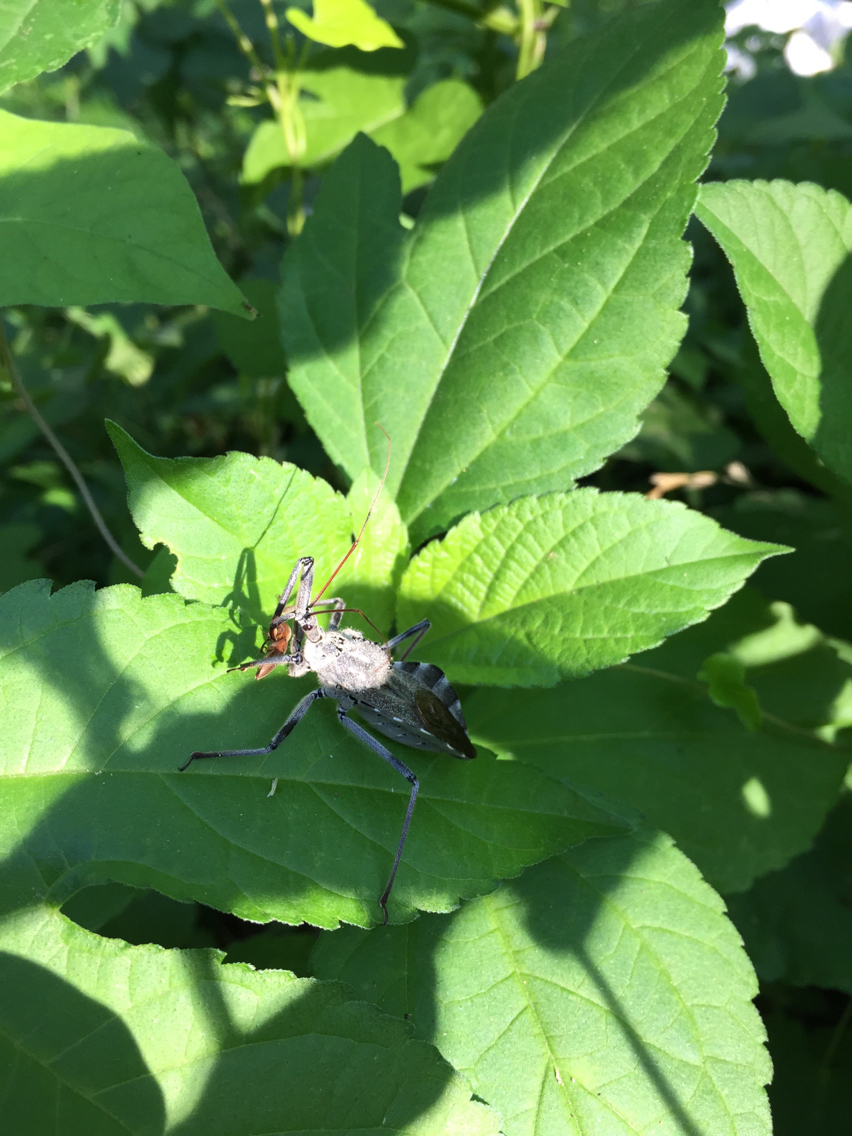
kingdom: Animalia
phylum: Arthropoda
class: Insecta
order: Hemiptera
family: Reduviidae
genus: Arilus
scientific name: Arilus cristatus
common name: North american wheel bug
